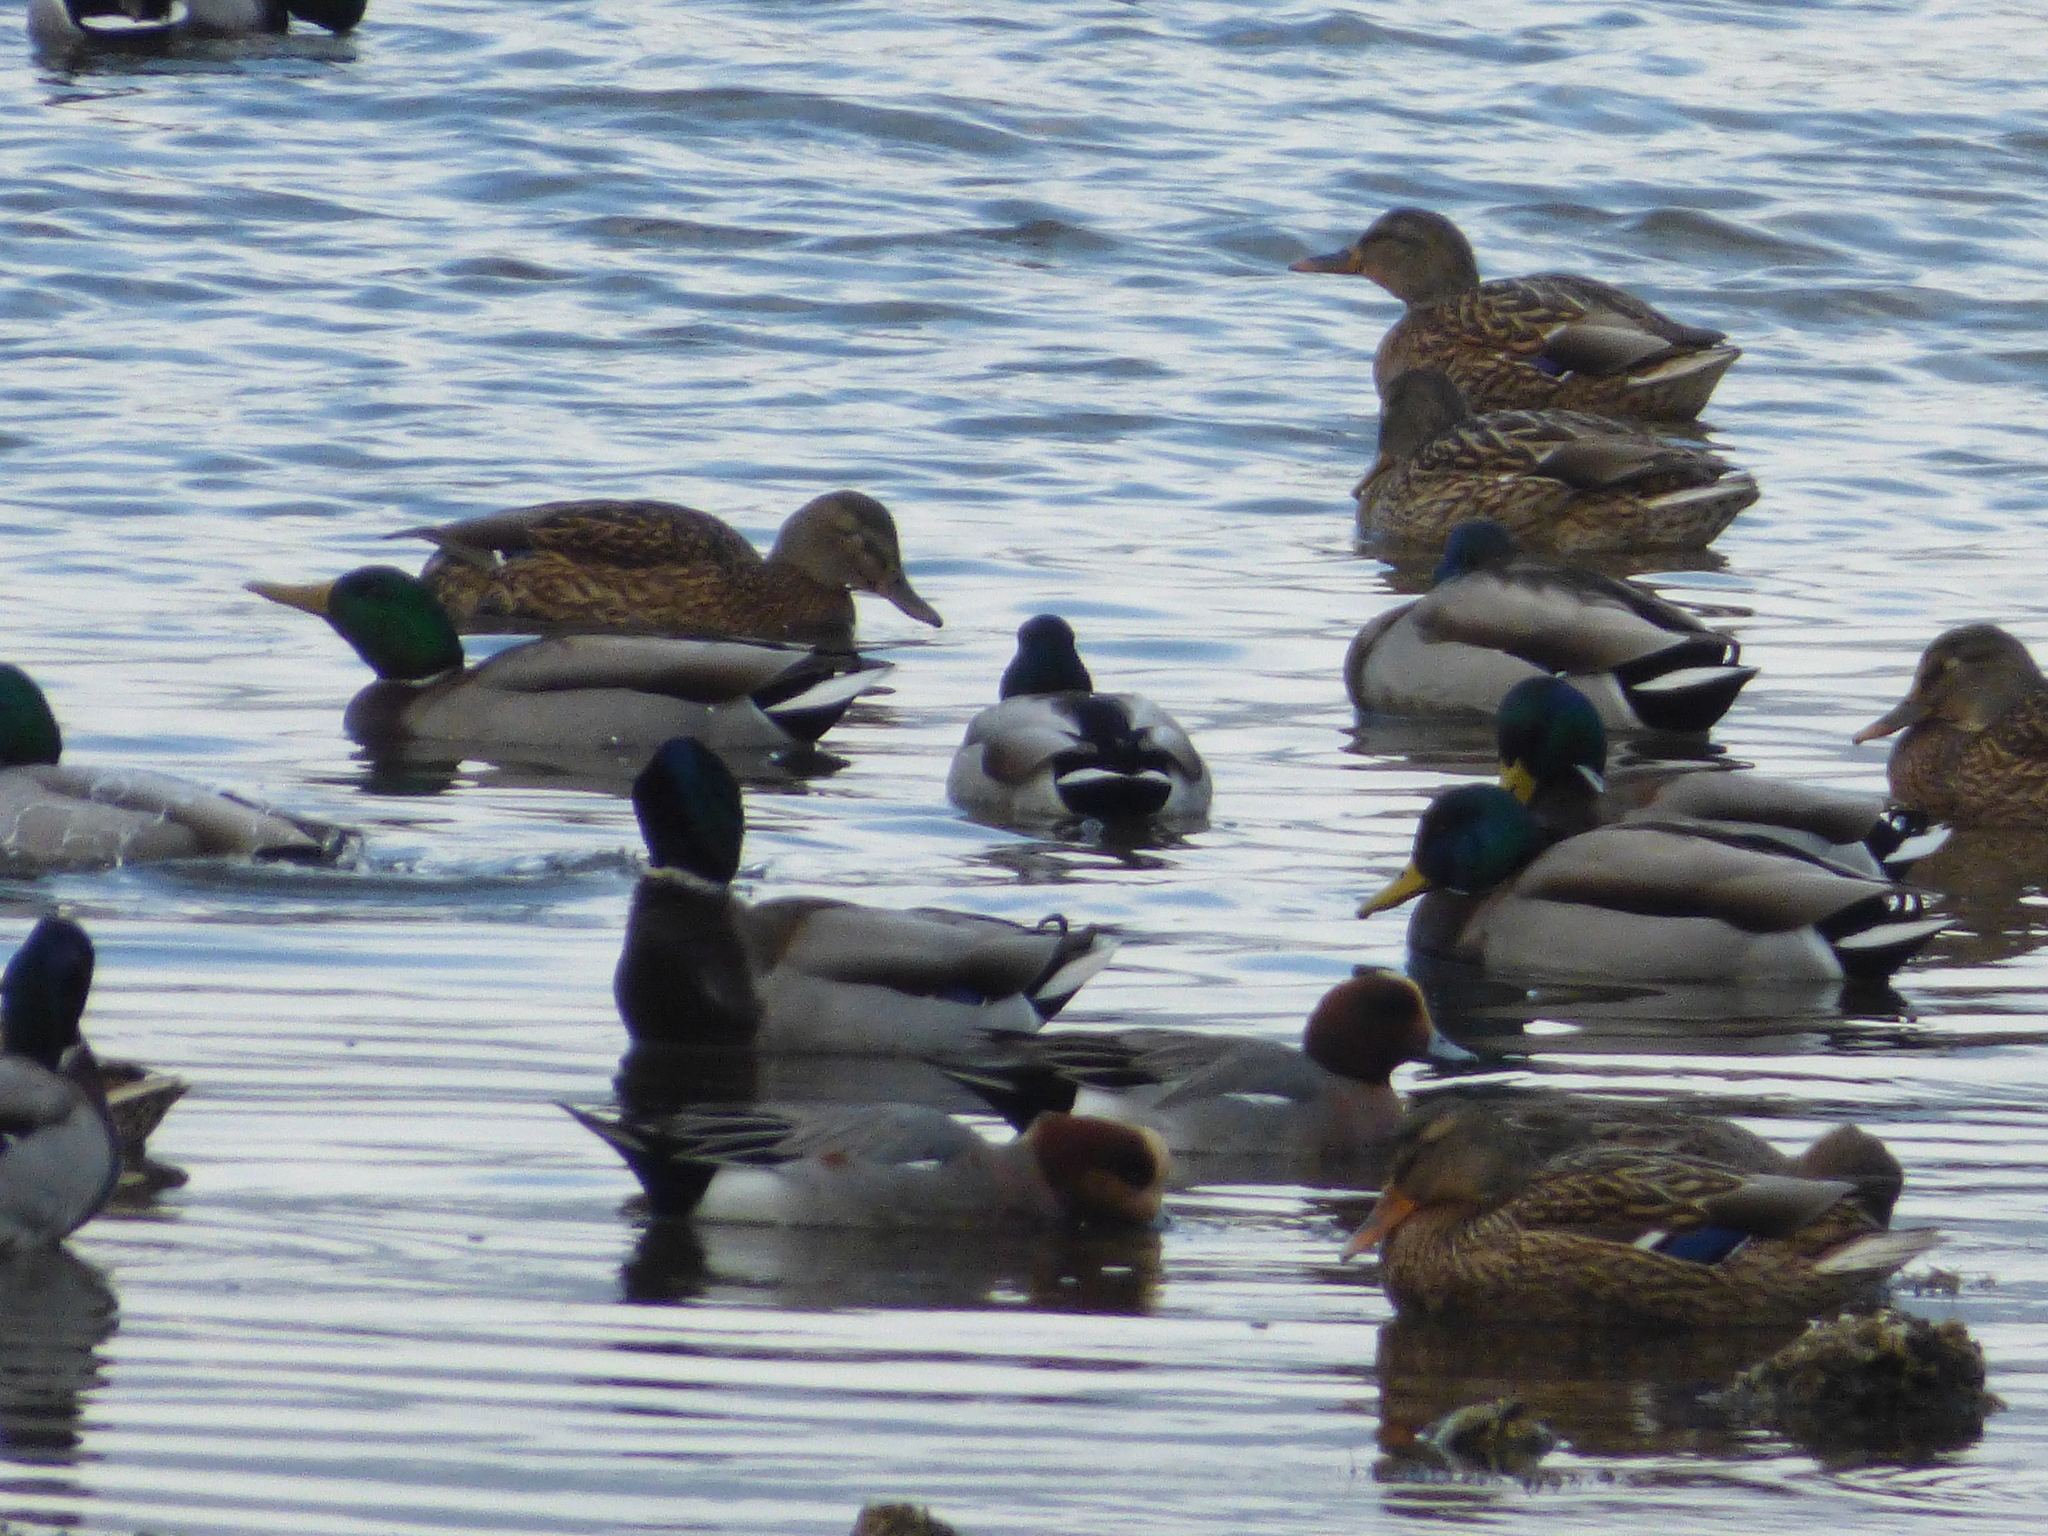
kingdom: Animalia
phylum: Chordata
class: Aves
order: Anseriformes
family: Anatidae
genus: Anas
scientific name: Anas platyrhynchos
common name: Mallard
